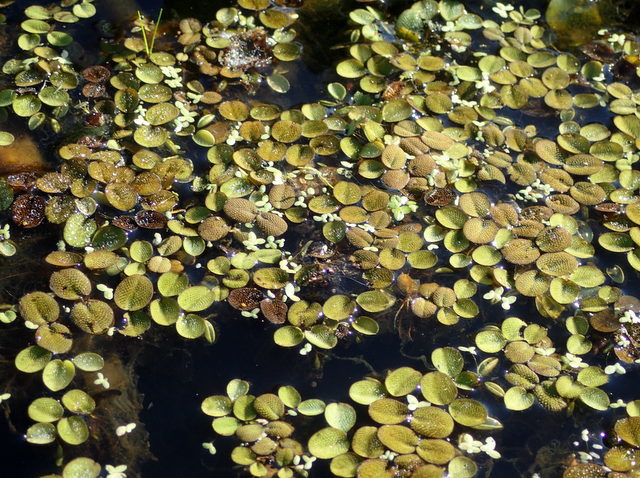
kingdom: Plantae
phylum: Tracheophyta
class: Polypodiopsida
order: Salviniales
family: Salviniaceae
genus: Salvinia
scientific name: Salvinia minima
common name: Water spangles
